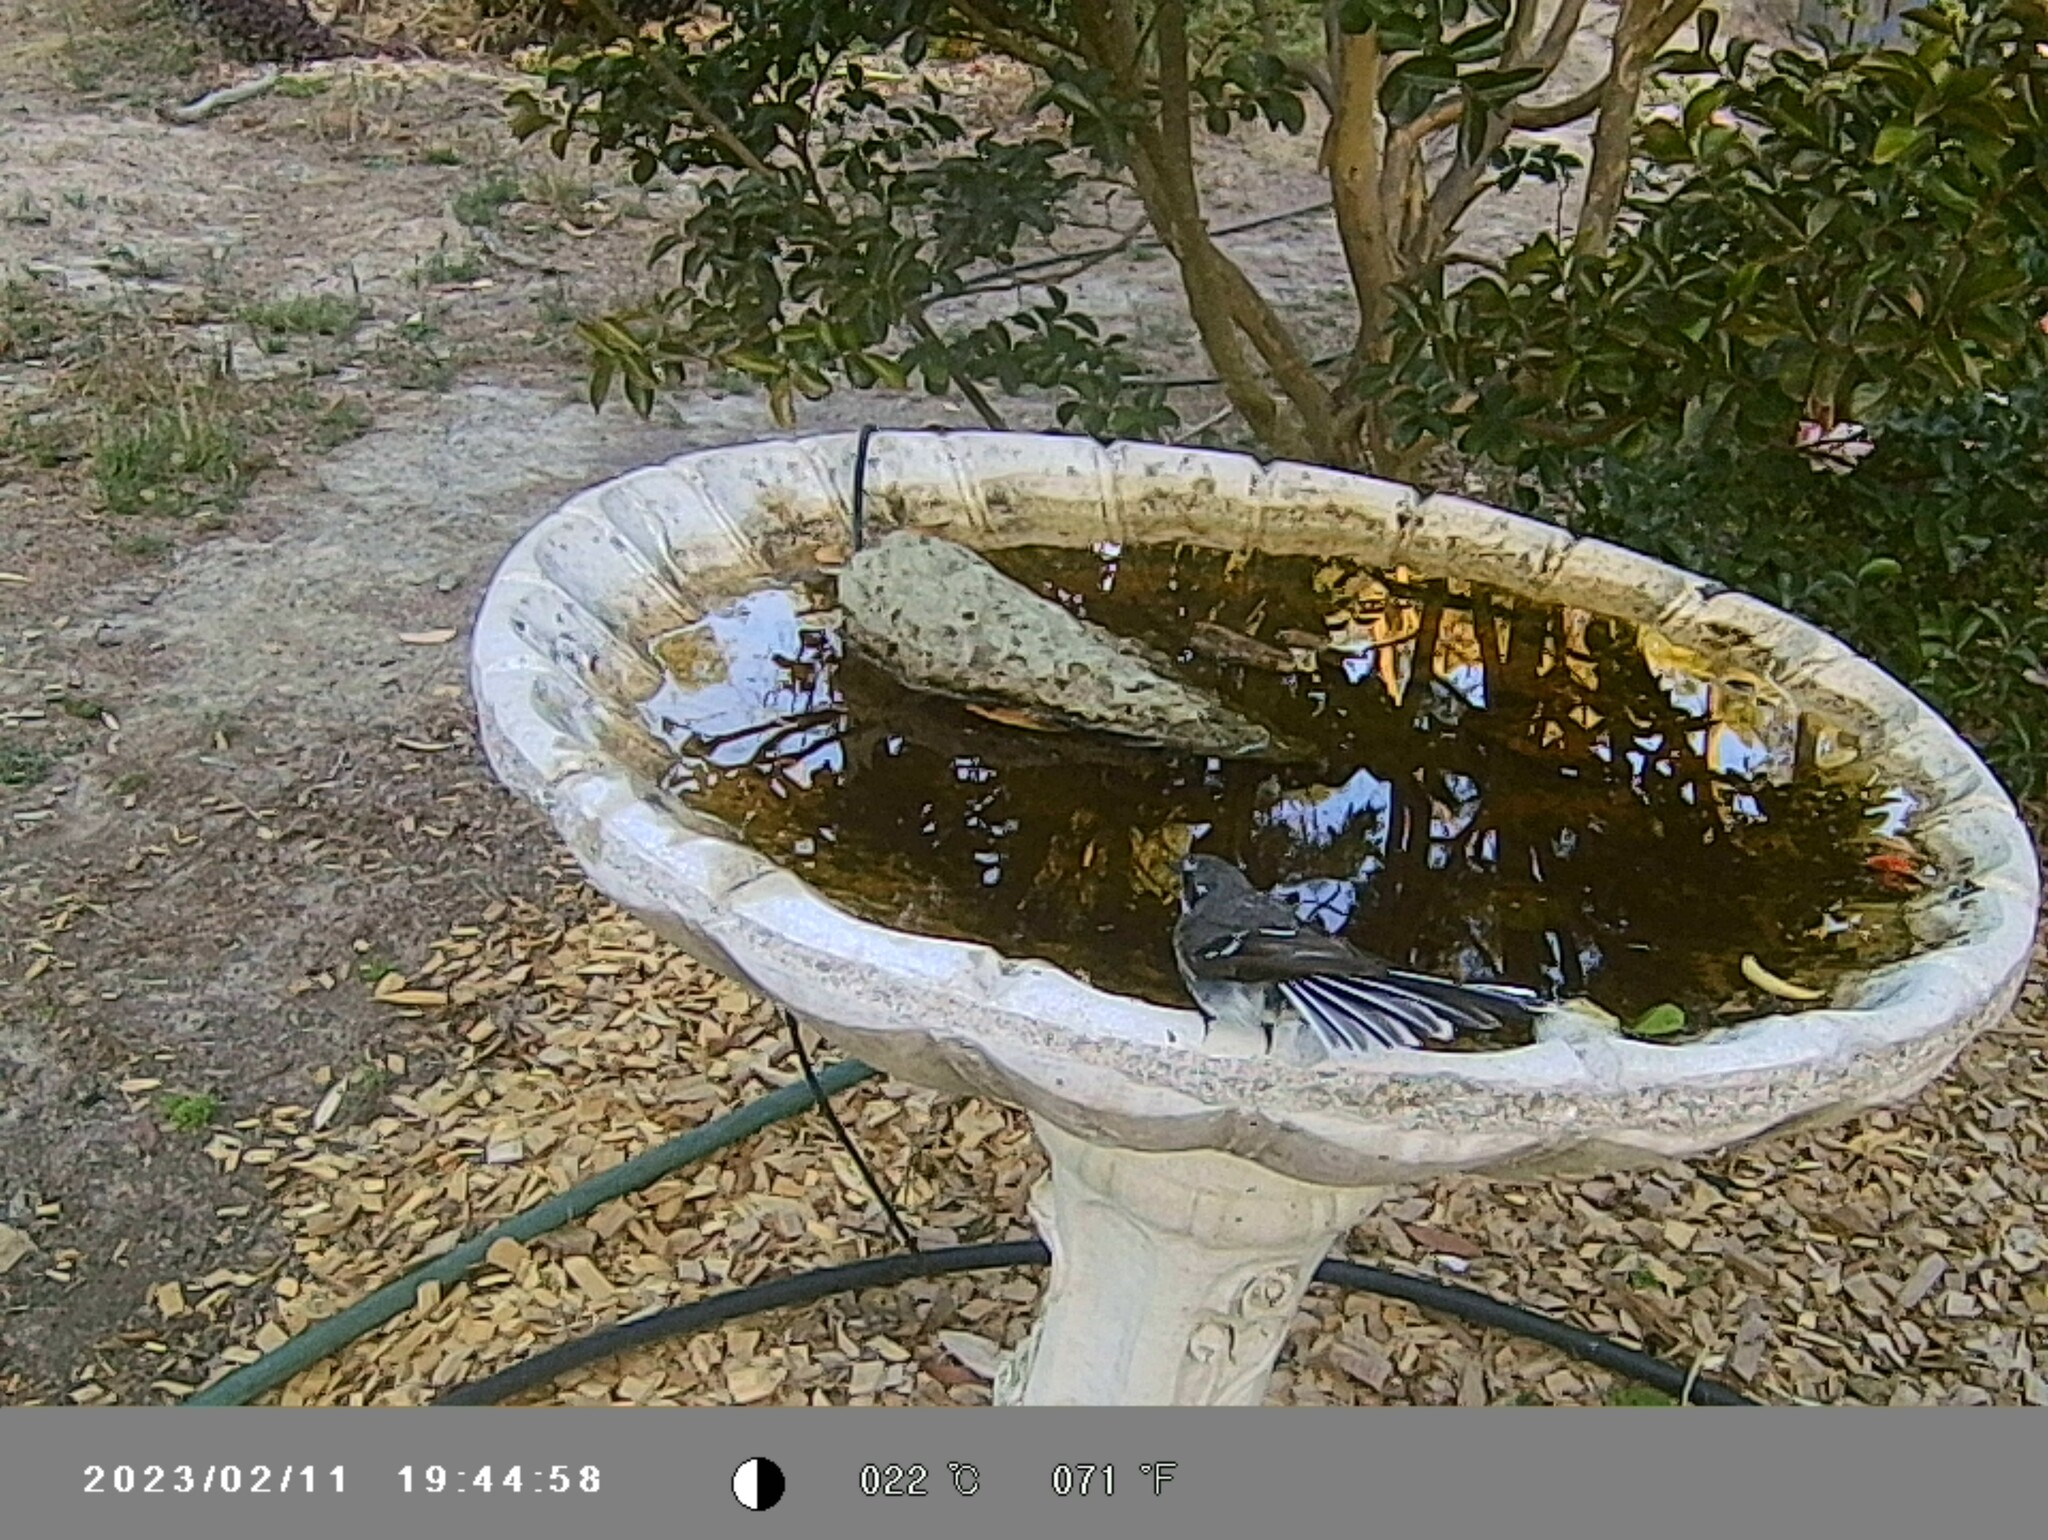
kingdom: Animalia
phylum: Chordata
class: Aves
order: Passeriformes
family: Rhipiduridae
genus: Rhipidura
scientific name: Rhipidura albiscapa
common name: Grey fantail
